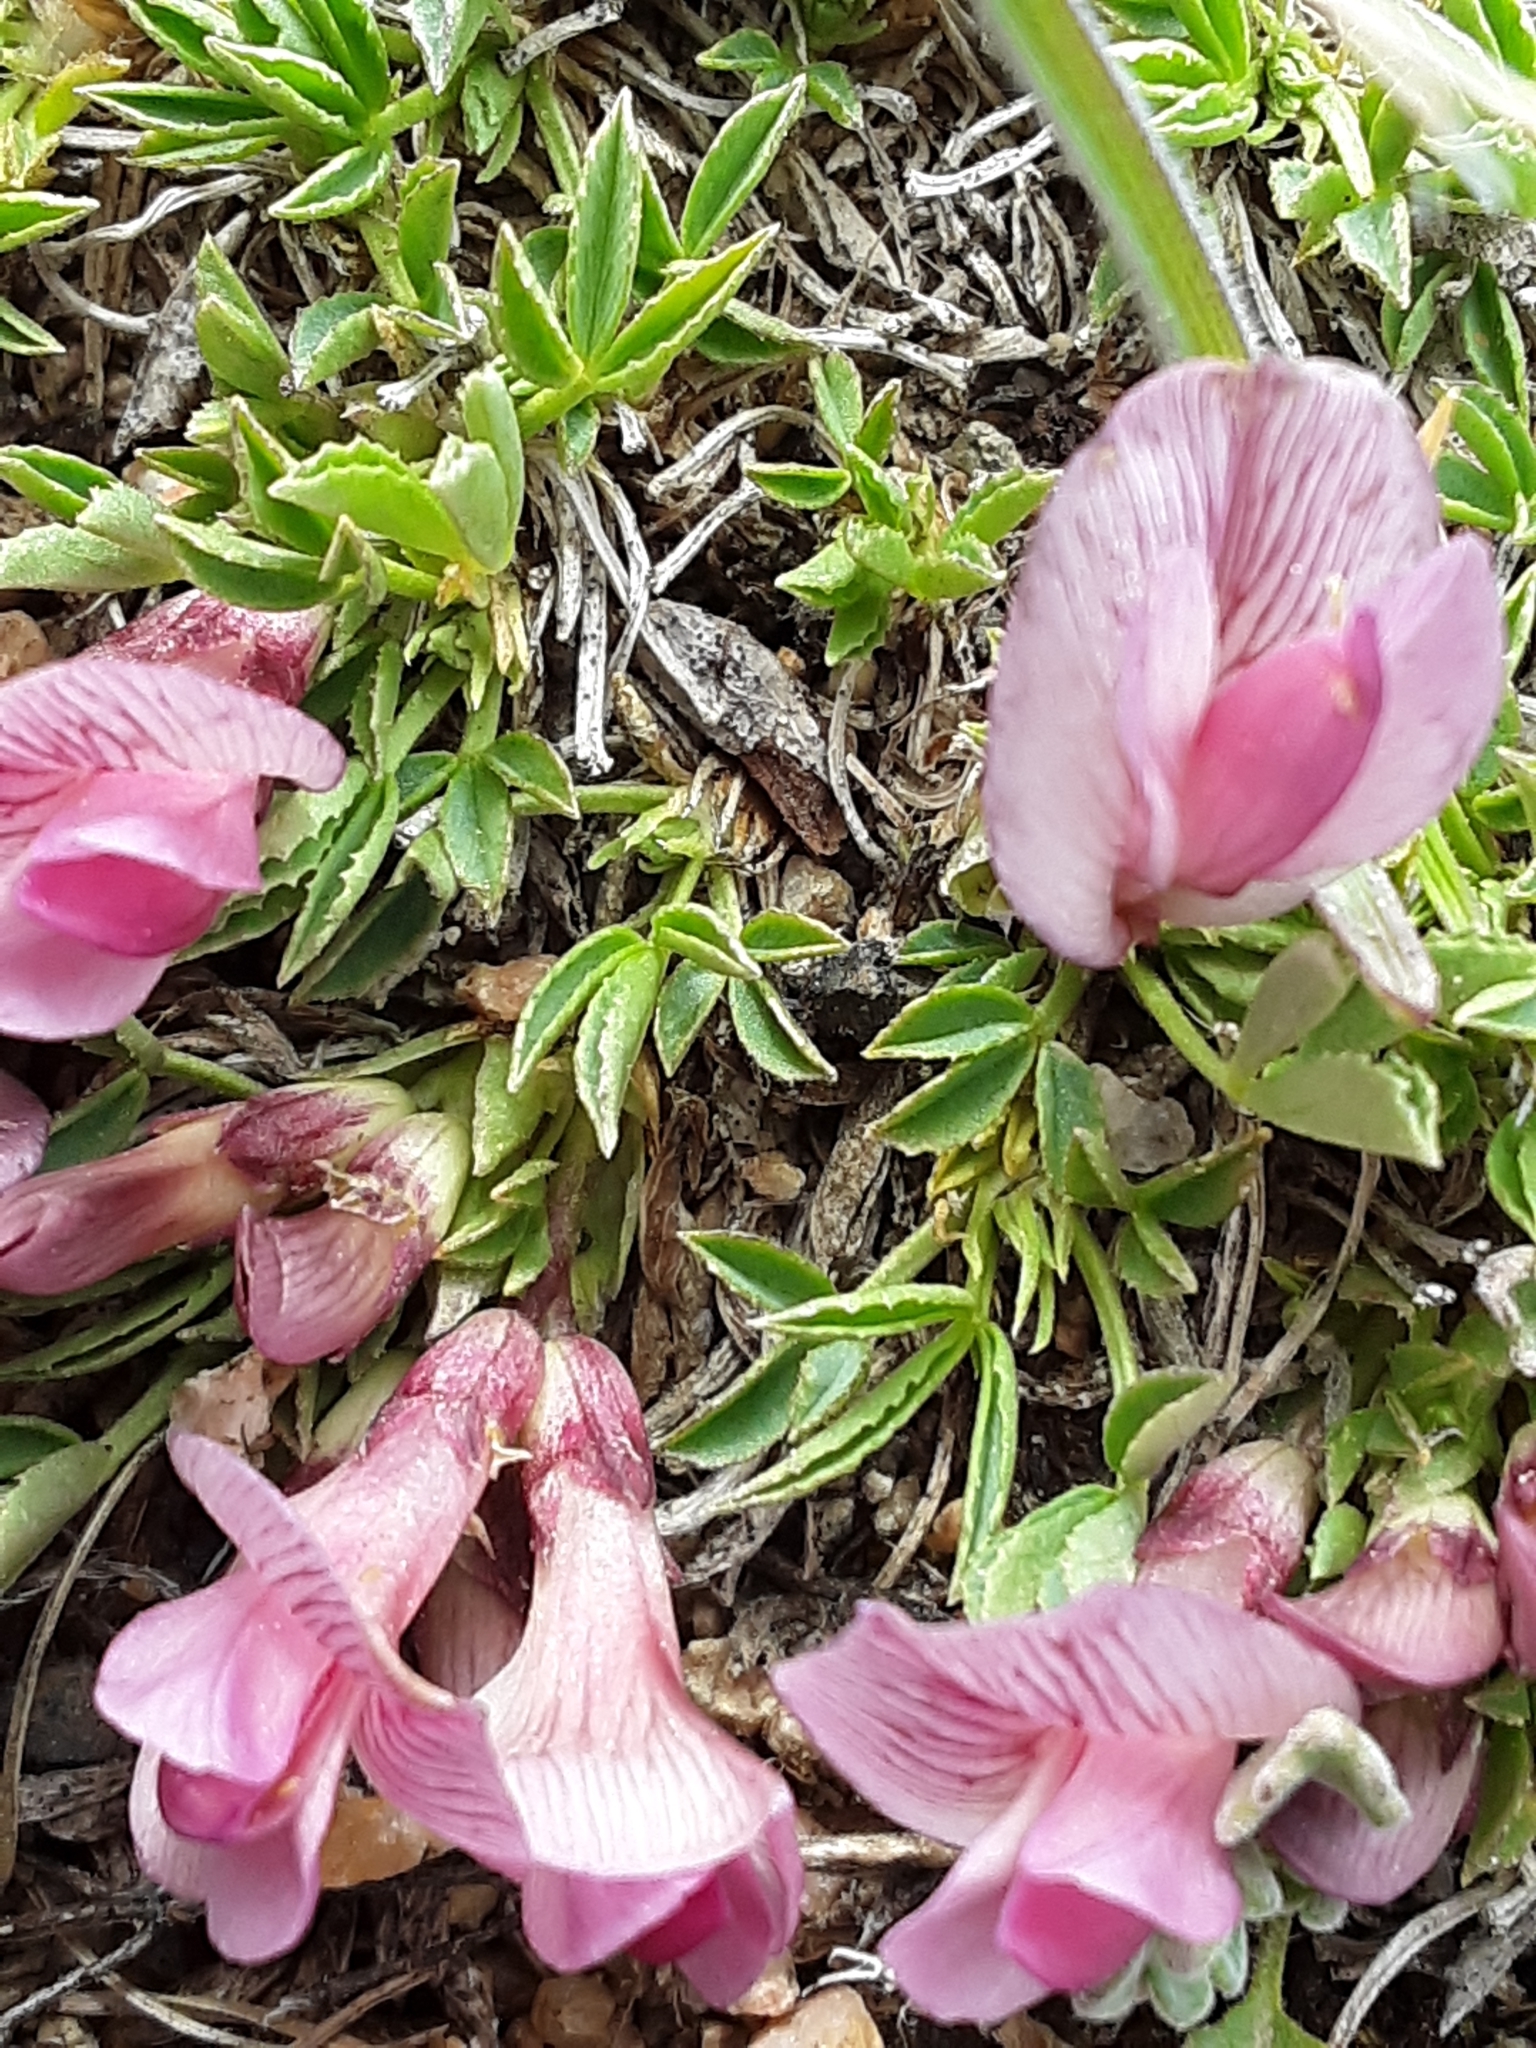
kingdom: Plantae
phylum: Tracheophyta
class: Magnoliopsida
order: Fabales
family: Fabaceae
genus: Trifolium
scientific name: Trifolium nanum
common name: Tundra clover
